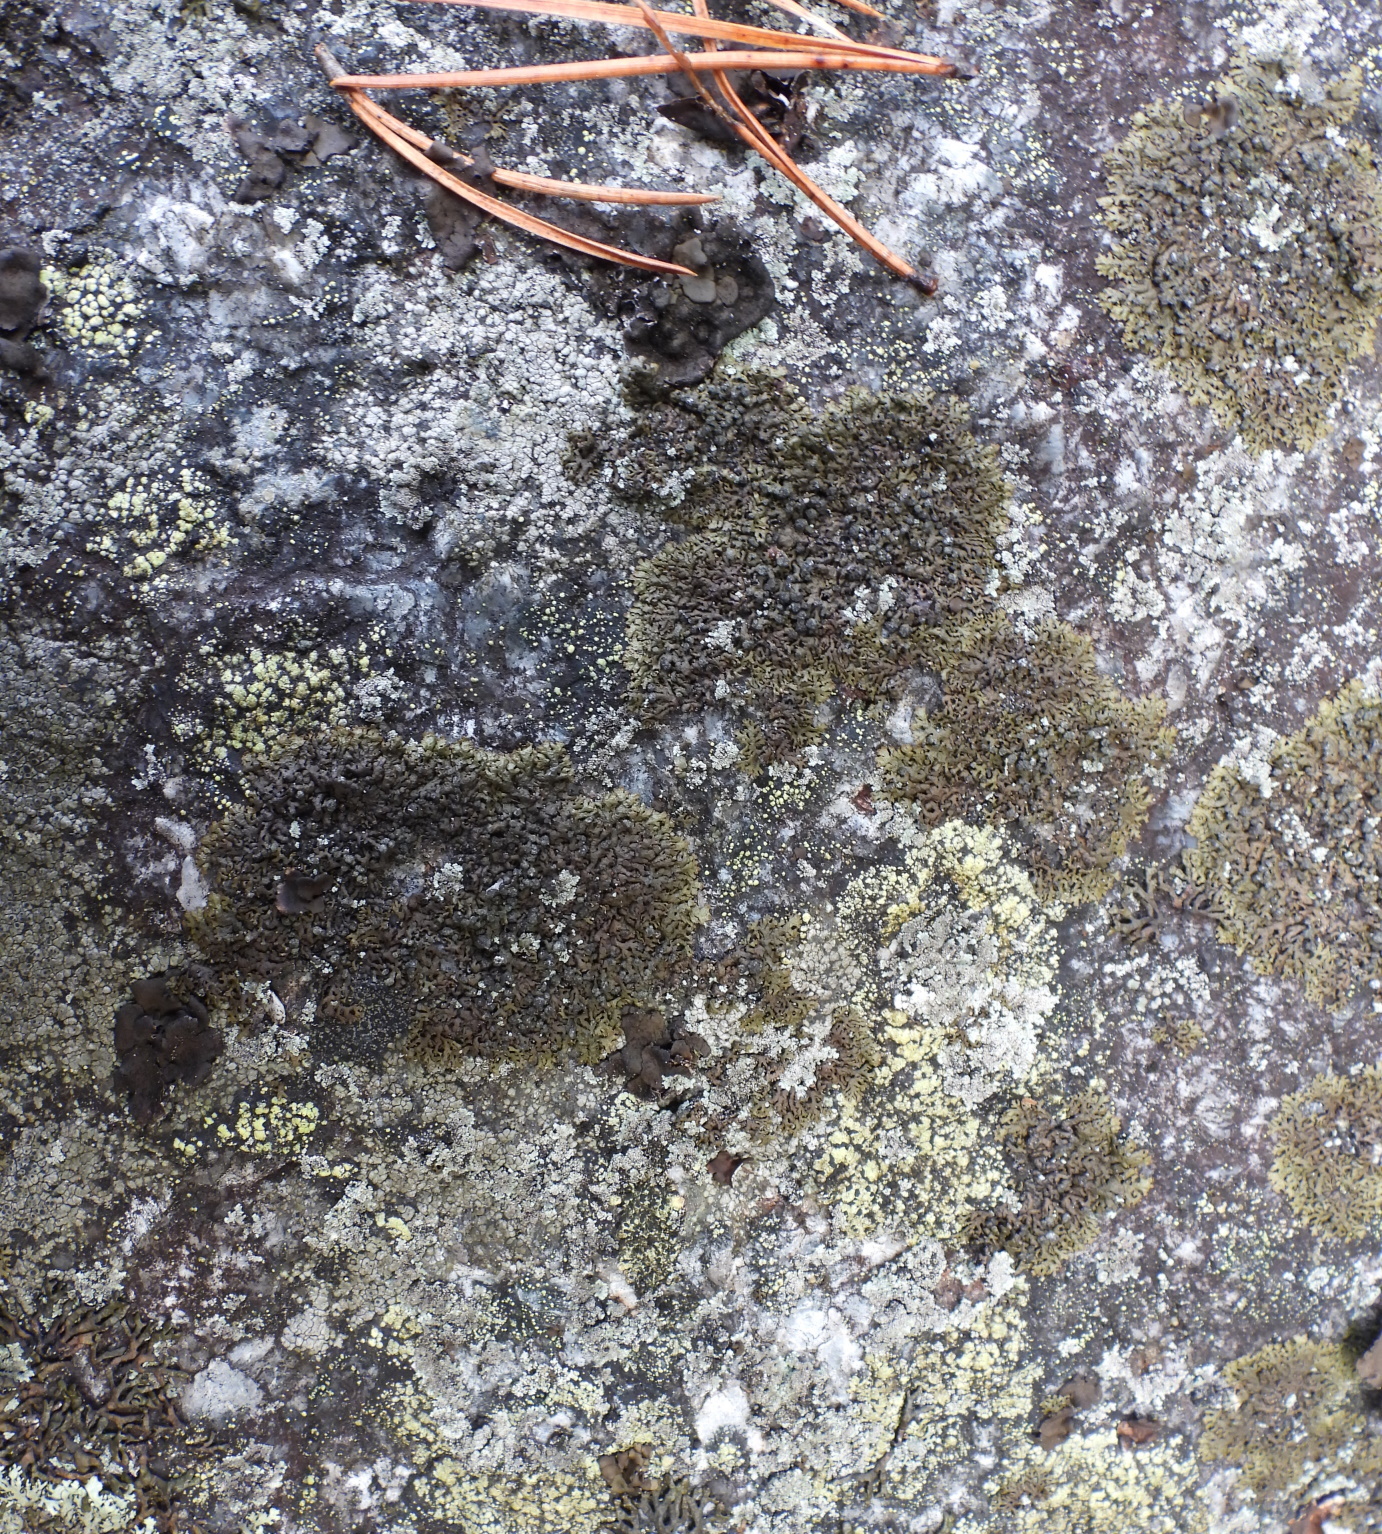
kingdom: Fungi
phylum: Ascomycota
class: Lecanoromycetes
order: Lecanorales
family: Parmeliaceae
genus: Montanelia
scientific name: Montanelia sorediata
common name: Powdered camouflage lichen
